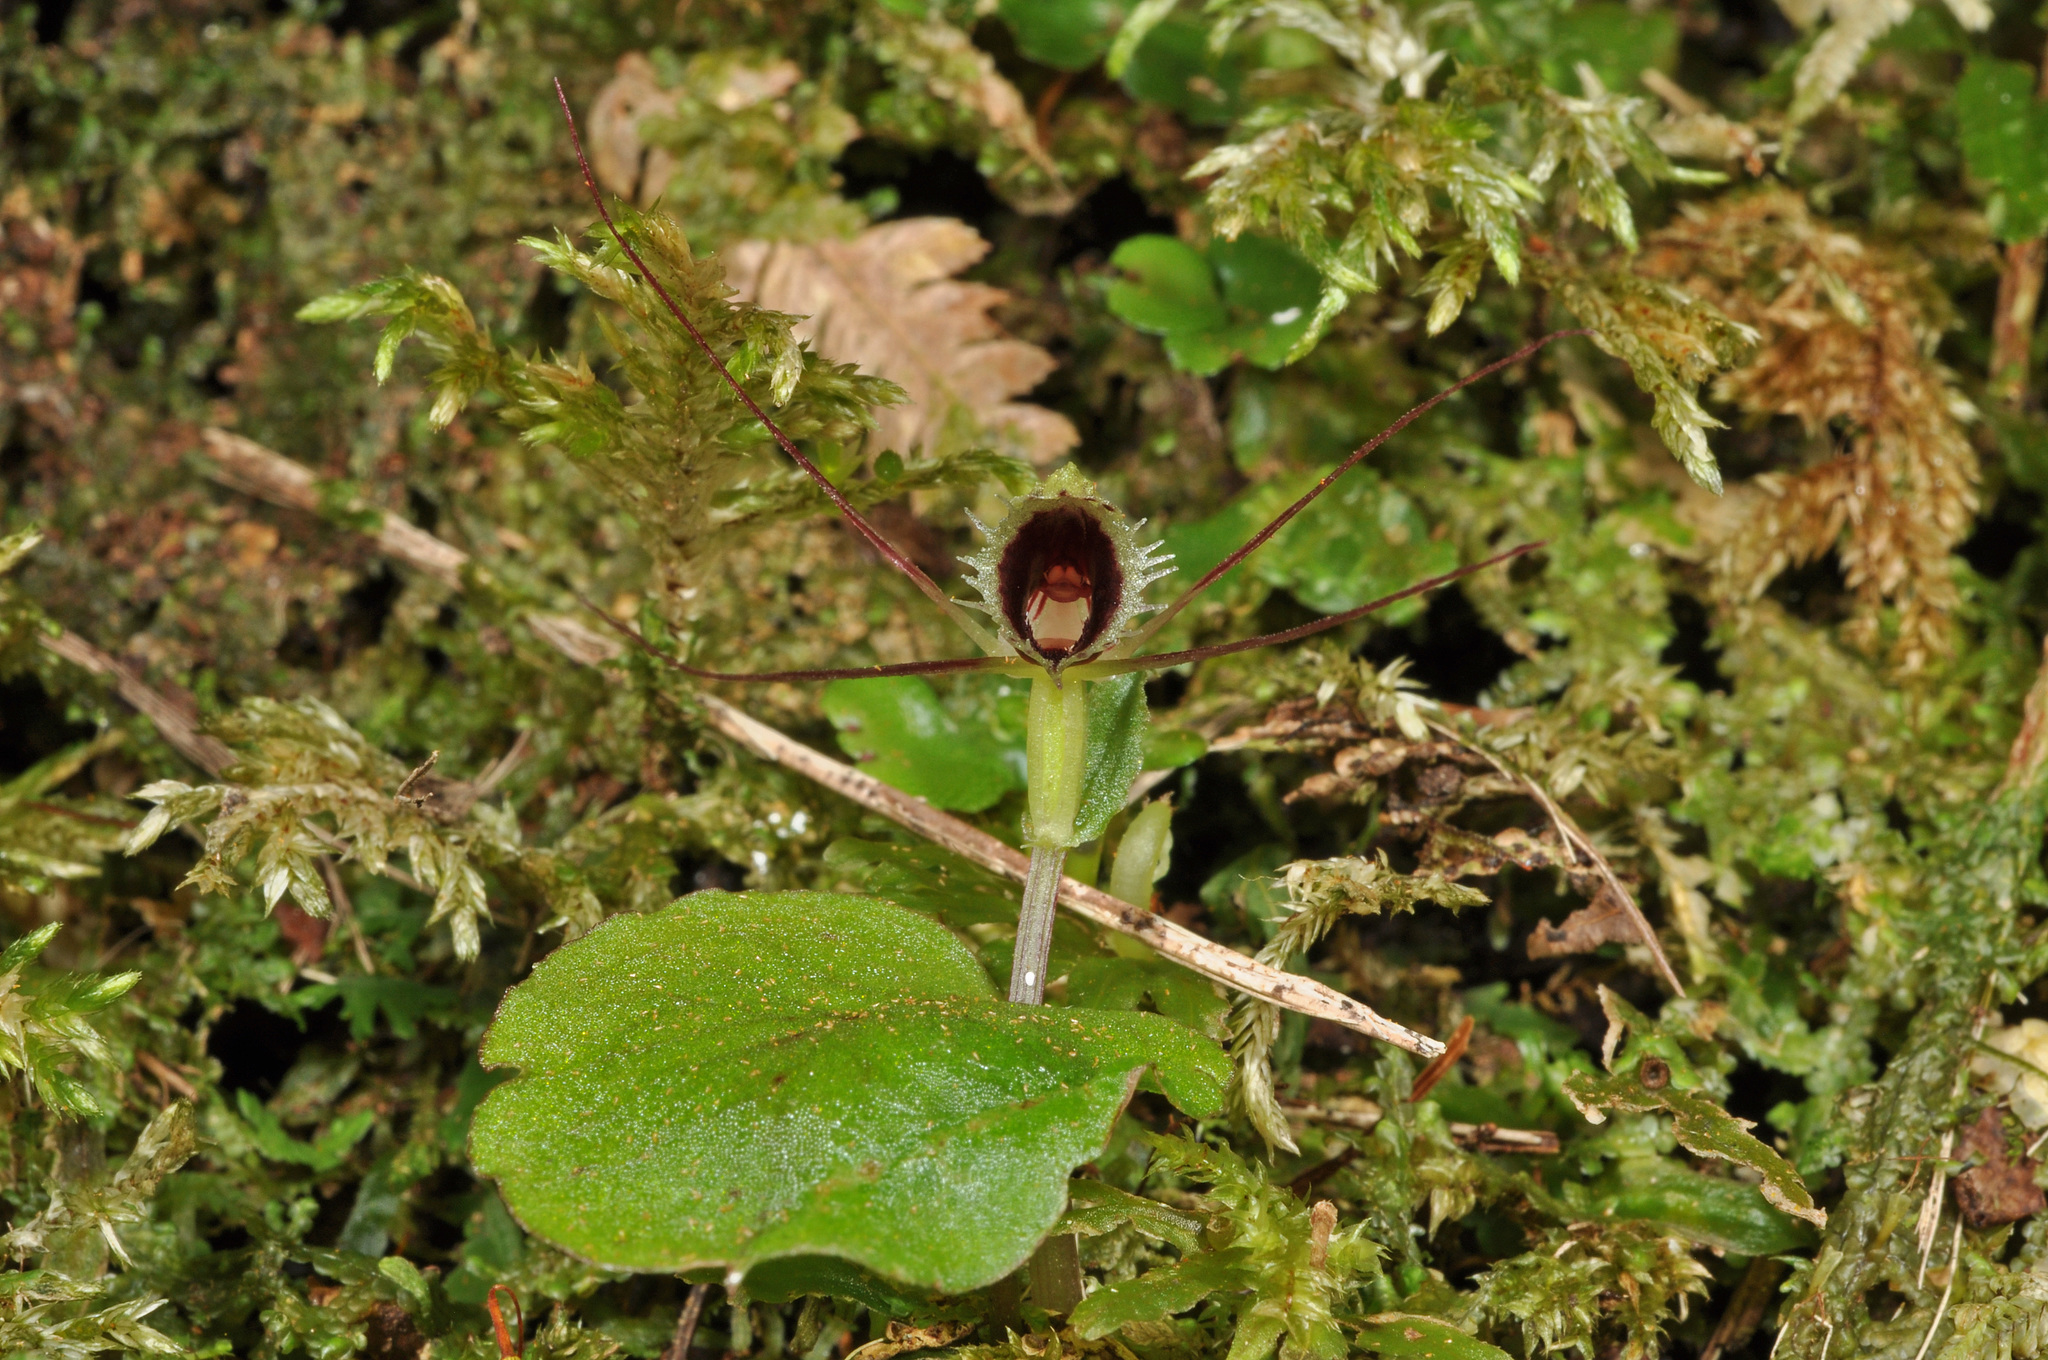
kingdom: Plantae
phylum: Tracheophyta
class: Liliopsida
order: Asparagales
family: Orchidaceae
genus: Corybas
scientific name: Corybas oblongus
